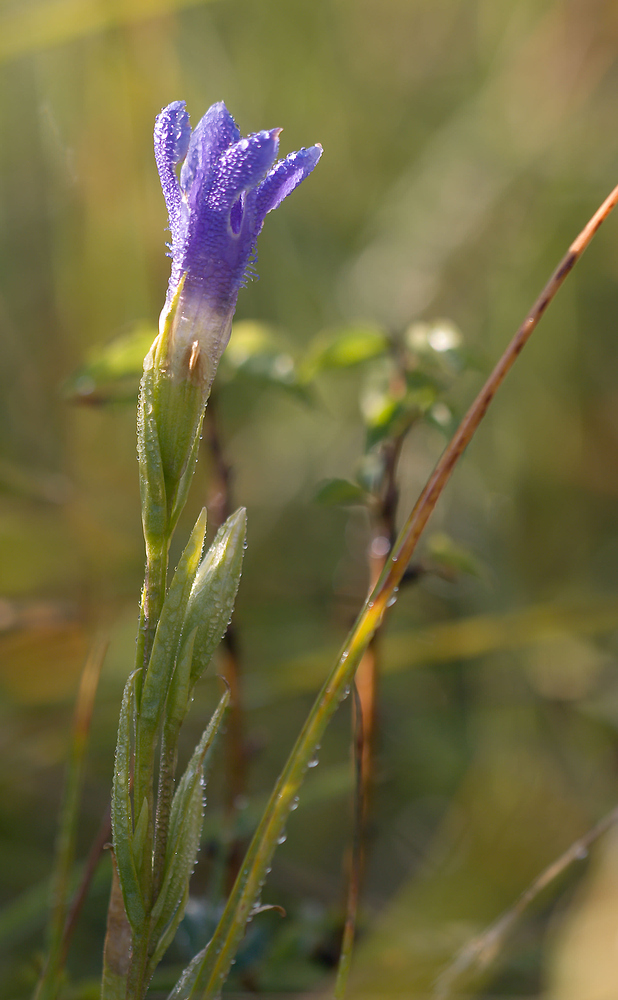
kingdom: Plantae
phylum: Tracheophyta
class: Magnoliopsida
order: Gentianales
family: Gentianaceae
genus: Gentianopsis
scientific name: Gentianopsis ciliata
